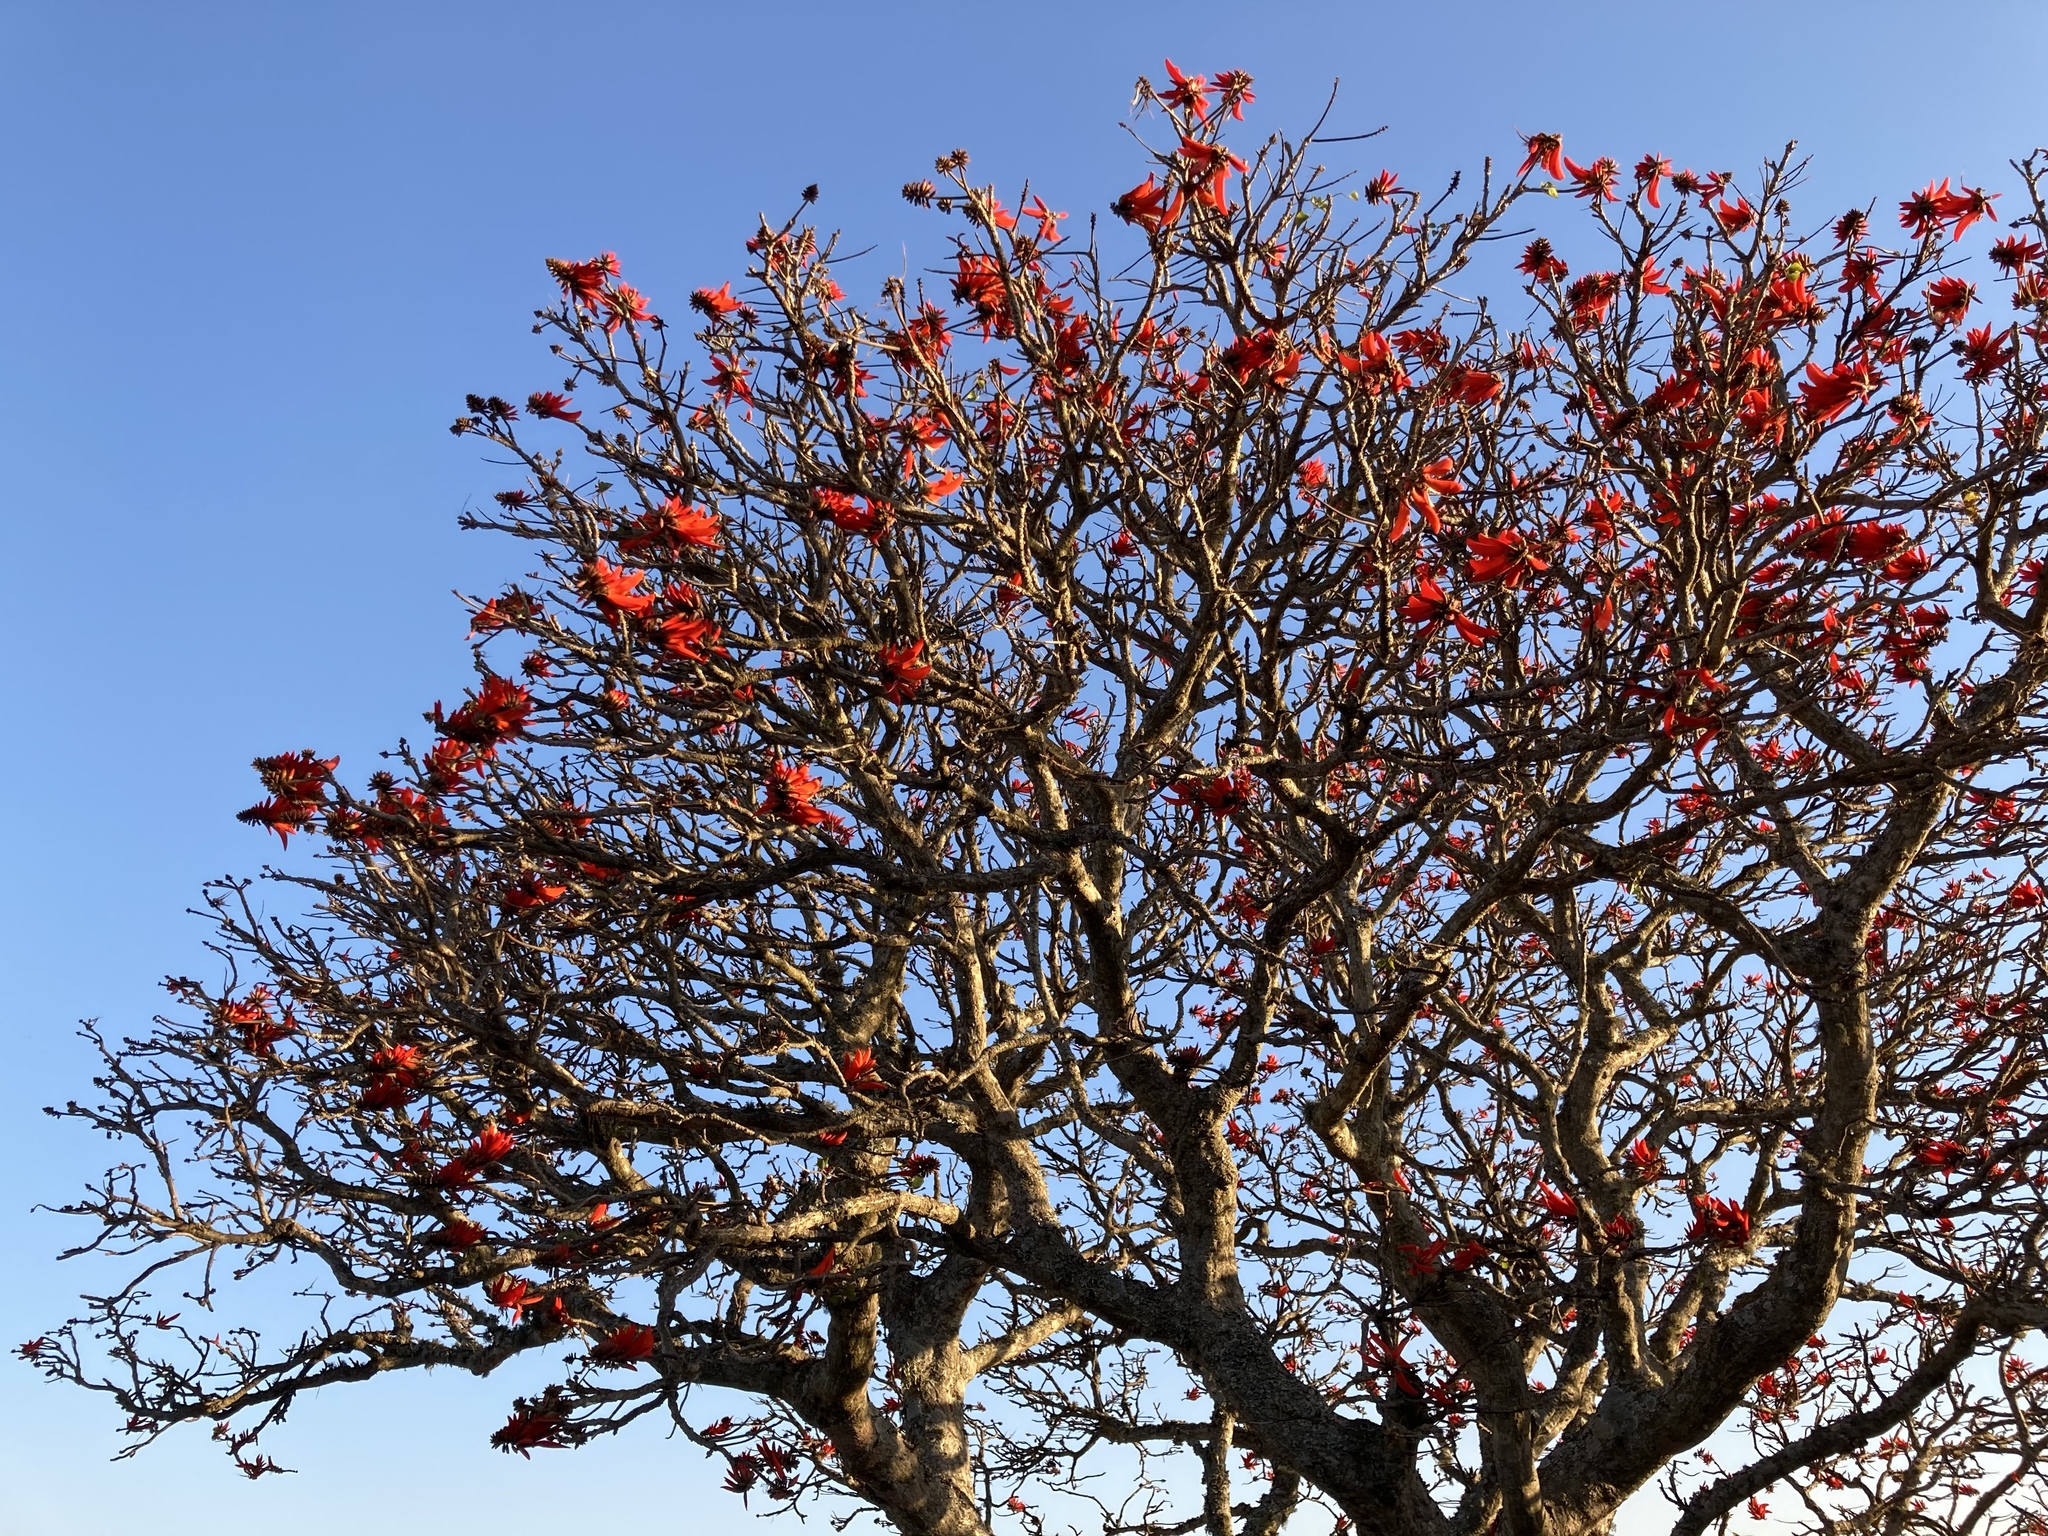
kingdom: Plantae
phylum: Tracheophyta
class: Magnoliopsida
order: Fabales
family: Fabaceae
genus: Erythrina
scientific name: Erythrina lysistemon
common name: Common coral tree
